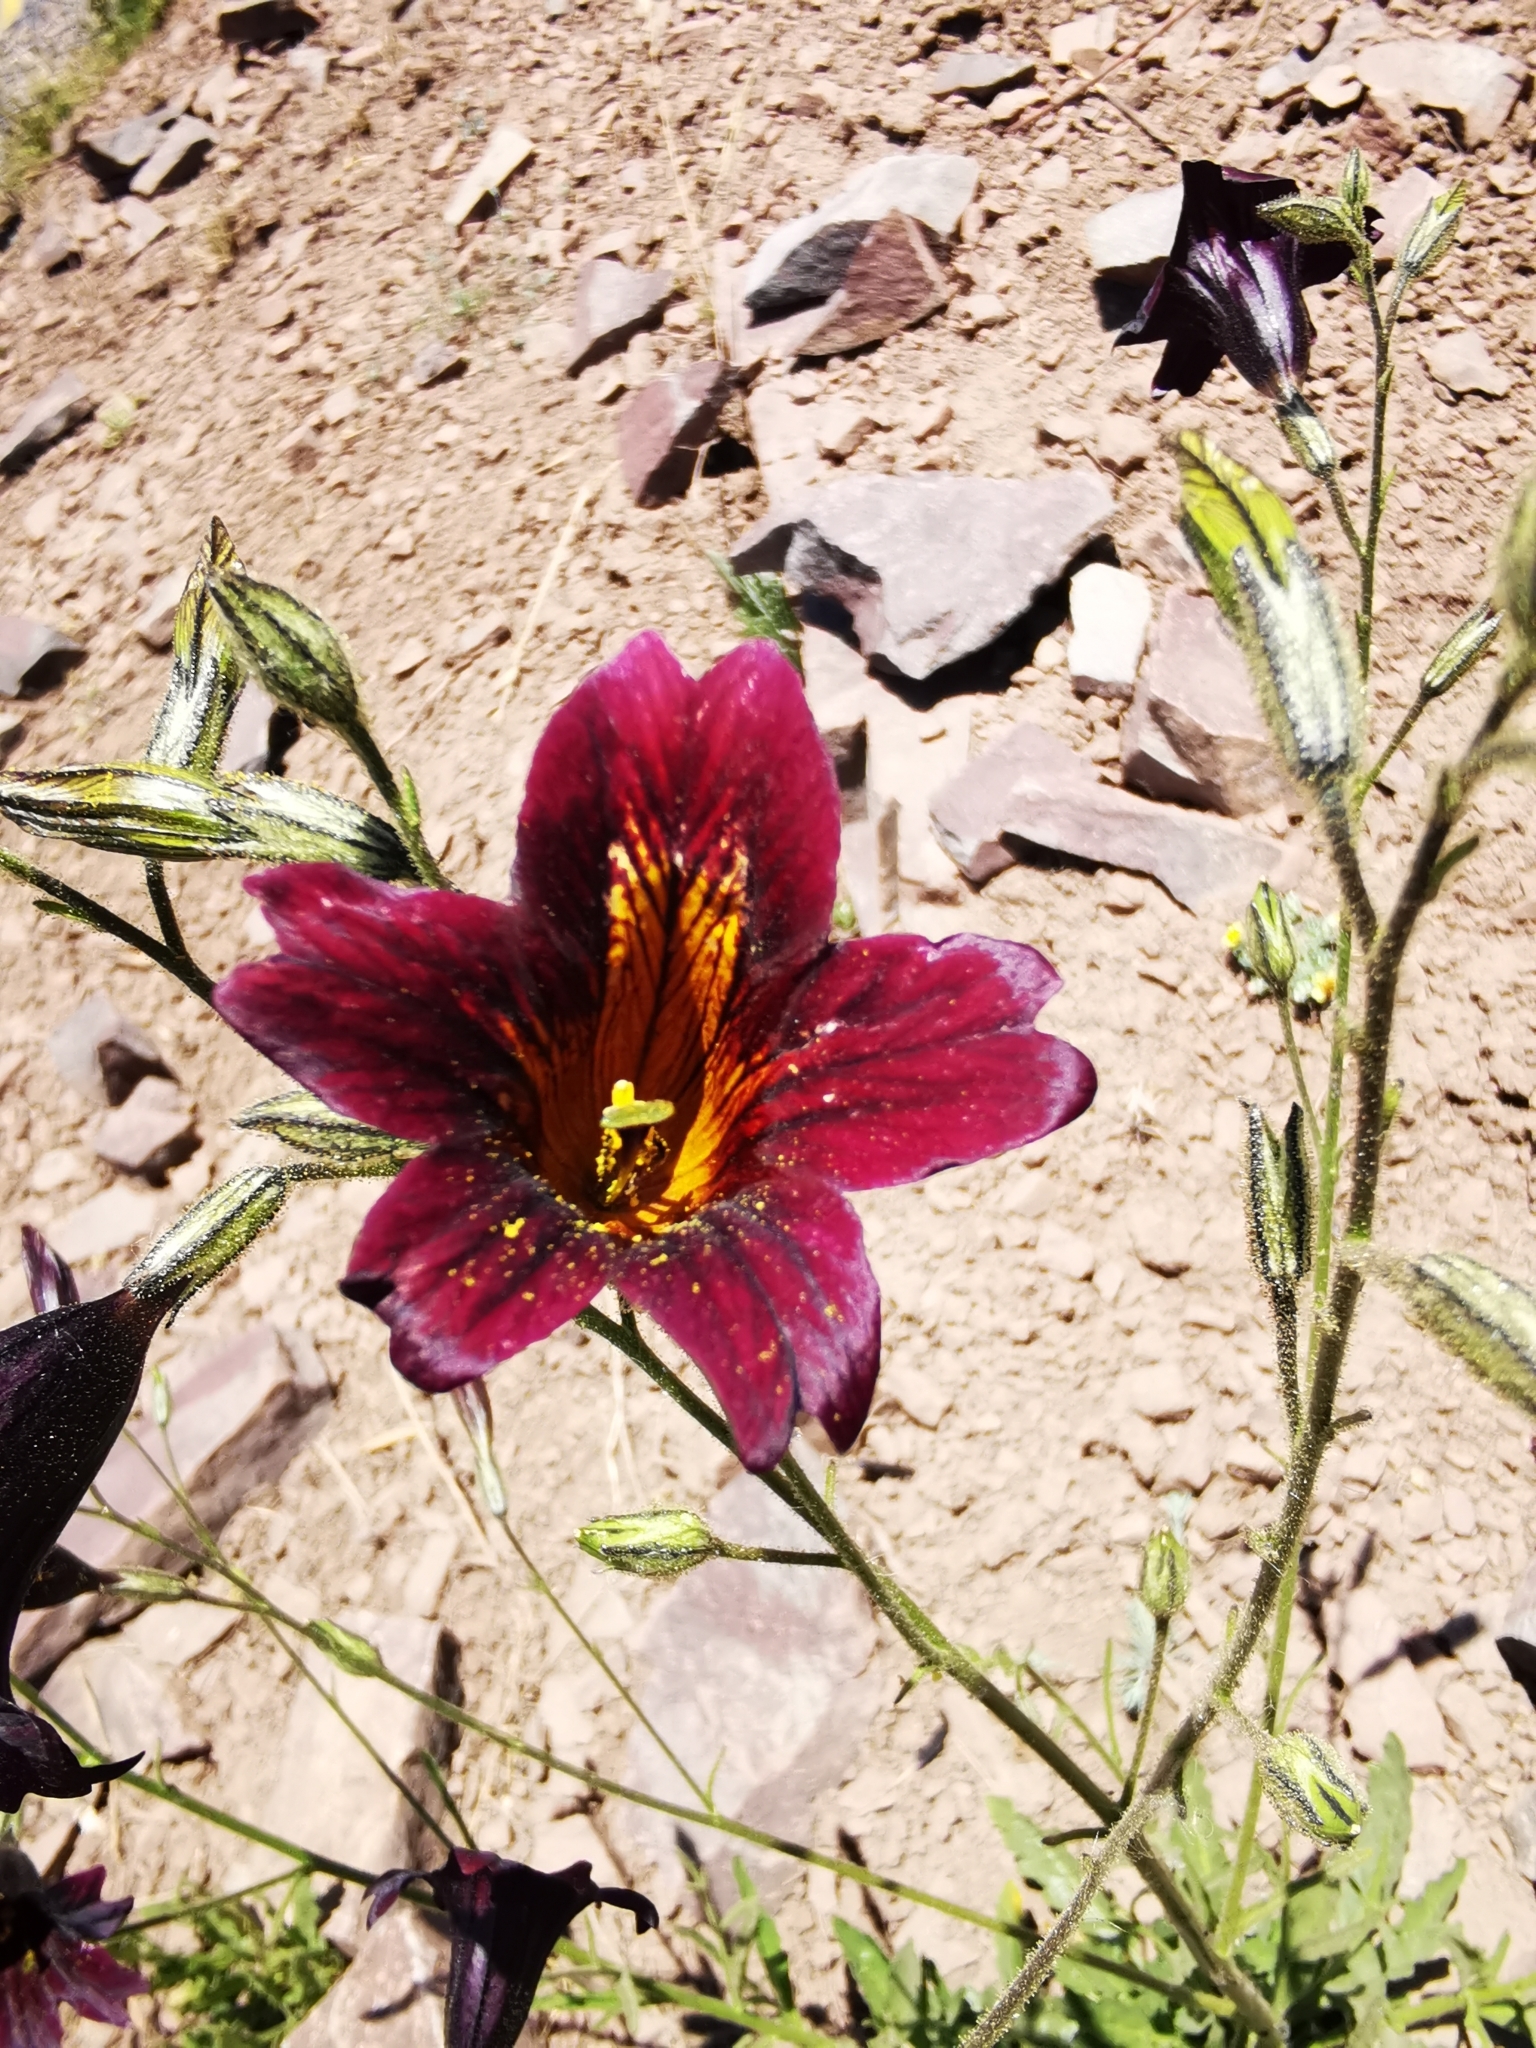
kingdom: Plantae
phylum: Tracheophyta
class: Magnoliopsida
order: Solanales
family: Solanaceae
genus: Salpiglossis
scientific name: Salpiglossis sinuata
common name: Painted-tongue
